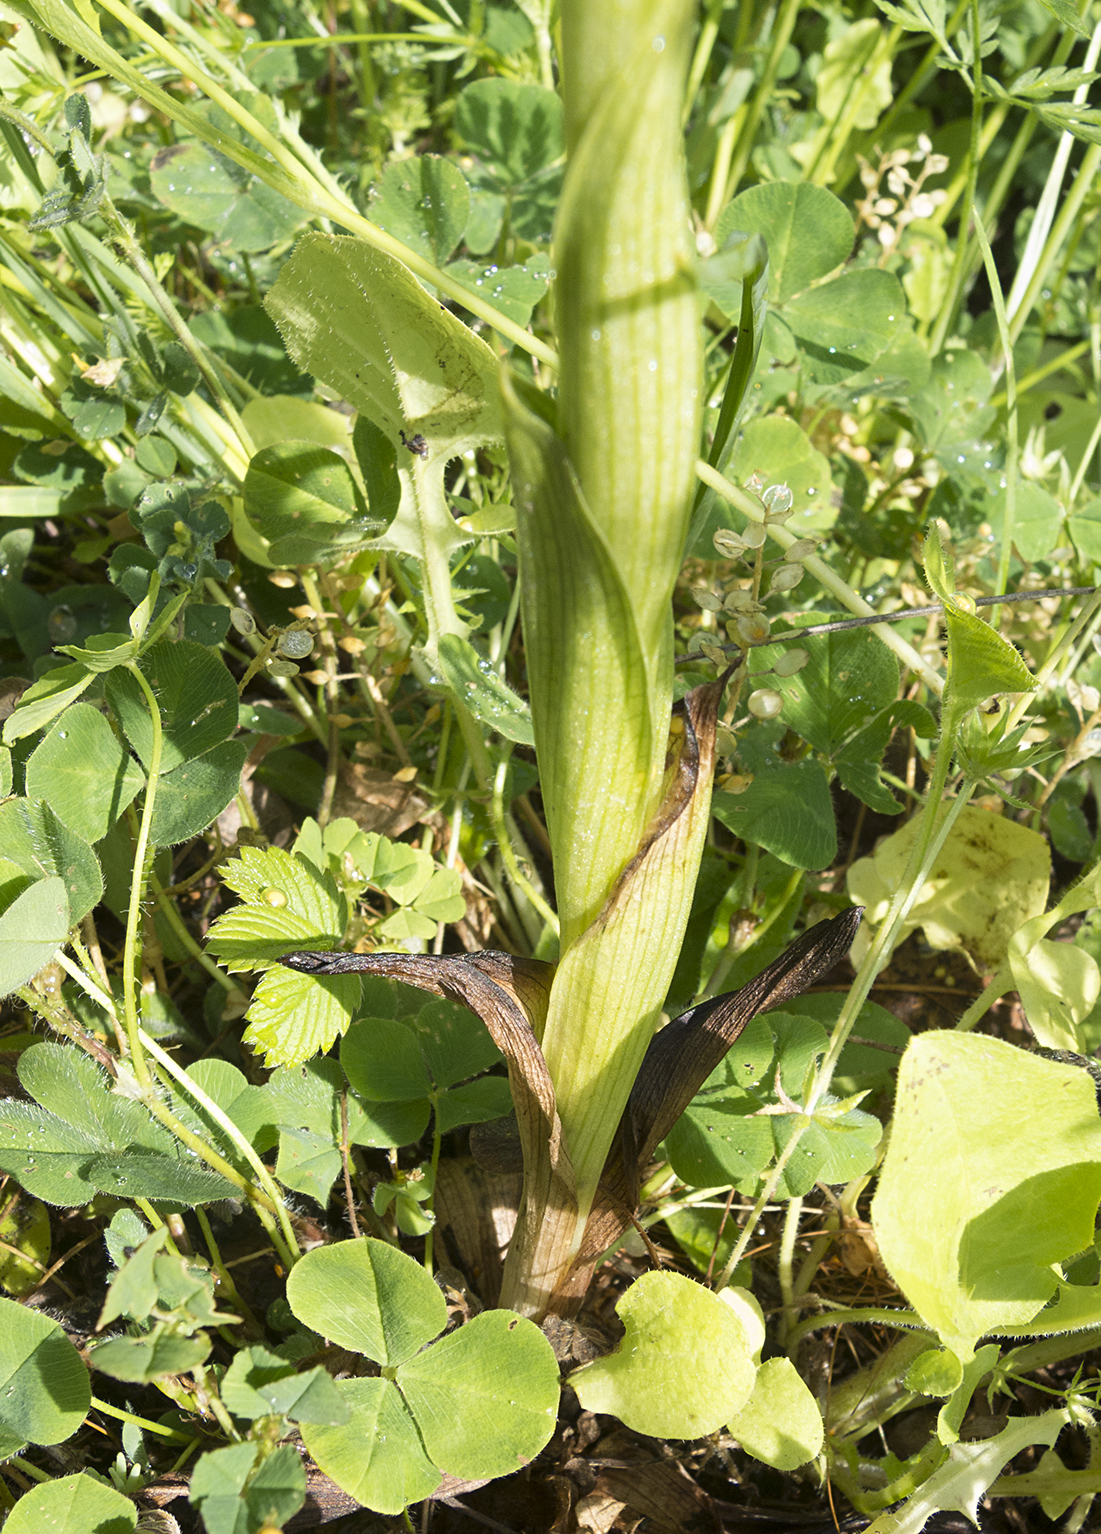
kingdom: Plantae
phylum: Tracheophyta
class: Liliopsida
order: Asparagales
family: Orchidaceae
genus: Anacamptis
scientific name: Anacamptis papilionacea
